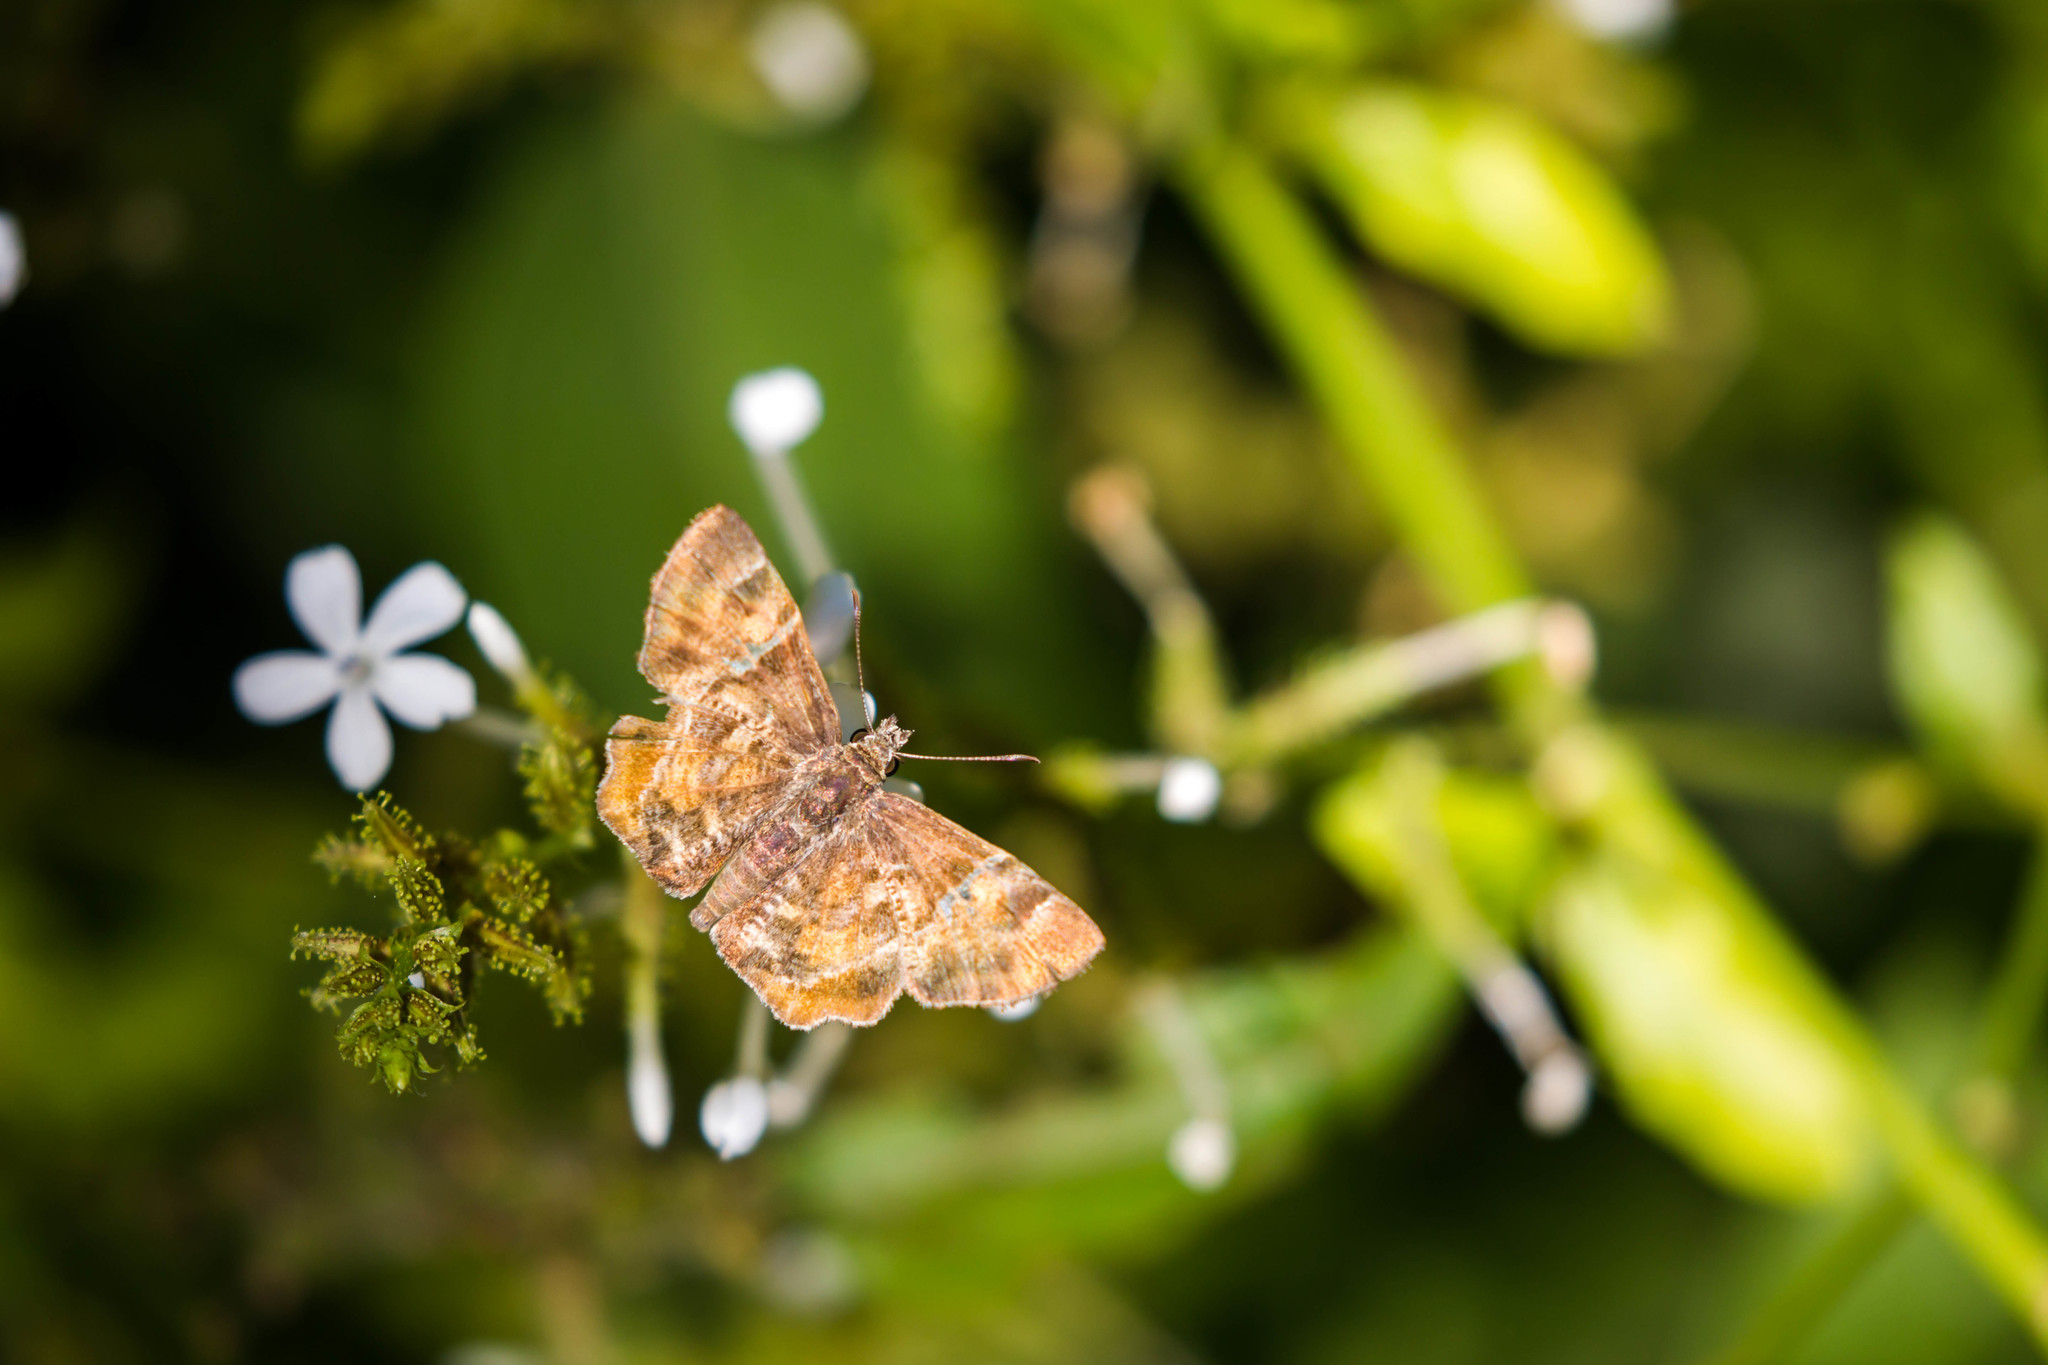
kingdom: Animalia
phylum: Arthropoda
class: Insecta
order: Lepidoptera
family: Hesperiidae
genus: Systasea
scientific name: Systasea pulverulenta
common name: Texas powdered skipper
